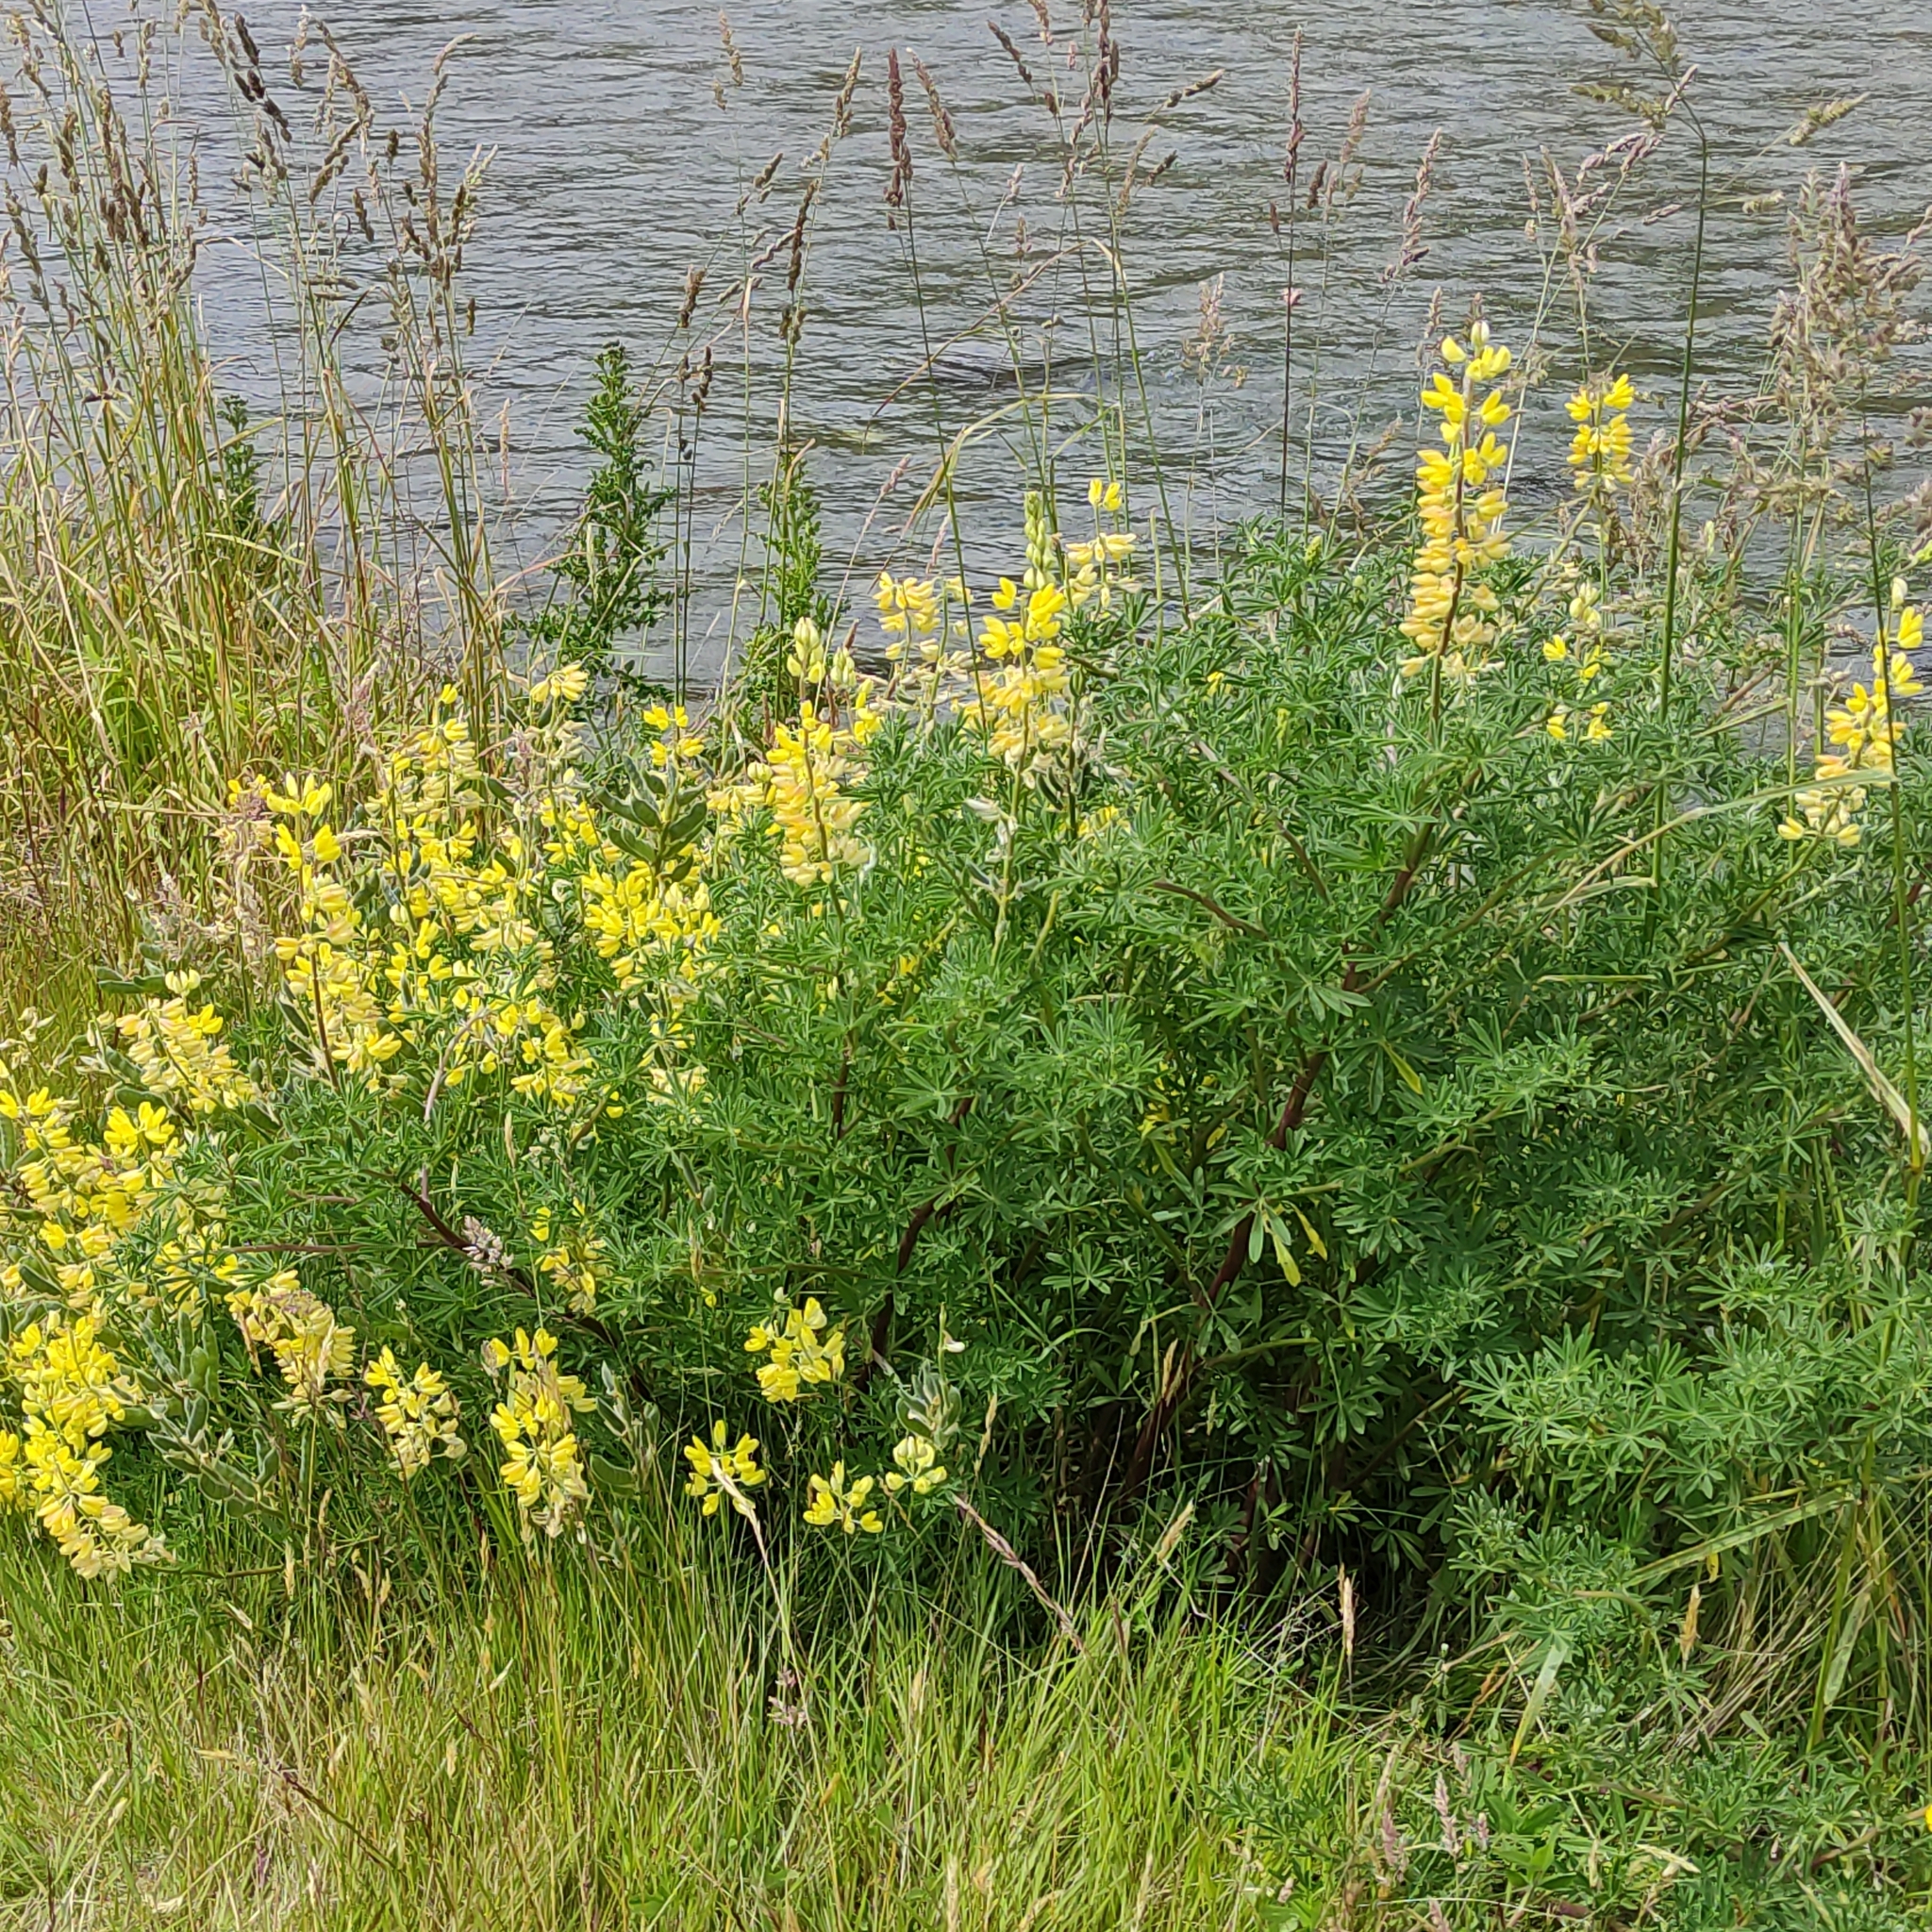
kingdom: Plantae
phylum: Tracheophyta
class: Magnoliopsida
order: Fabales
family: Fabaceae
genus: Lupinus
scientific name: Lupinus arboreus
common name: Yellow bush lupine
